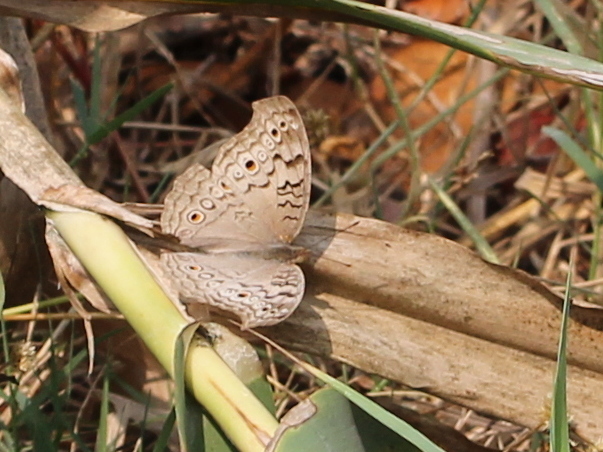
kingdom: Animalia
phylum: Arthropoda
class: Insecta
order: Lepidoptera
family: Nymphalidae
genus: Junonia
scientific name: Junonia atlites
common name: Grey pansy
